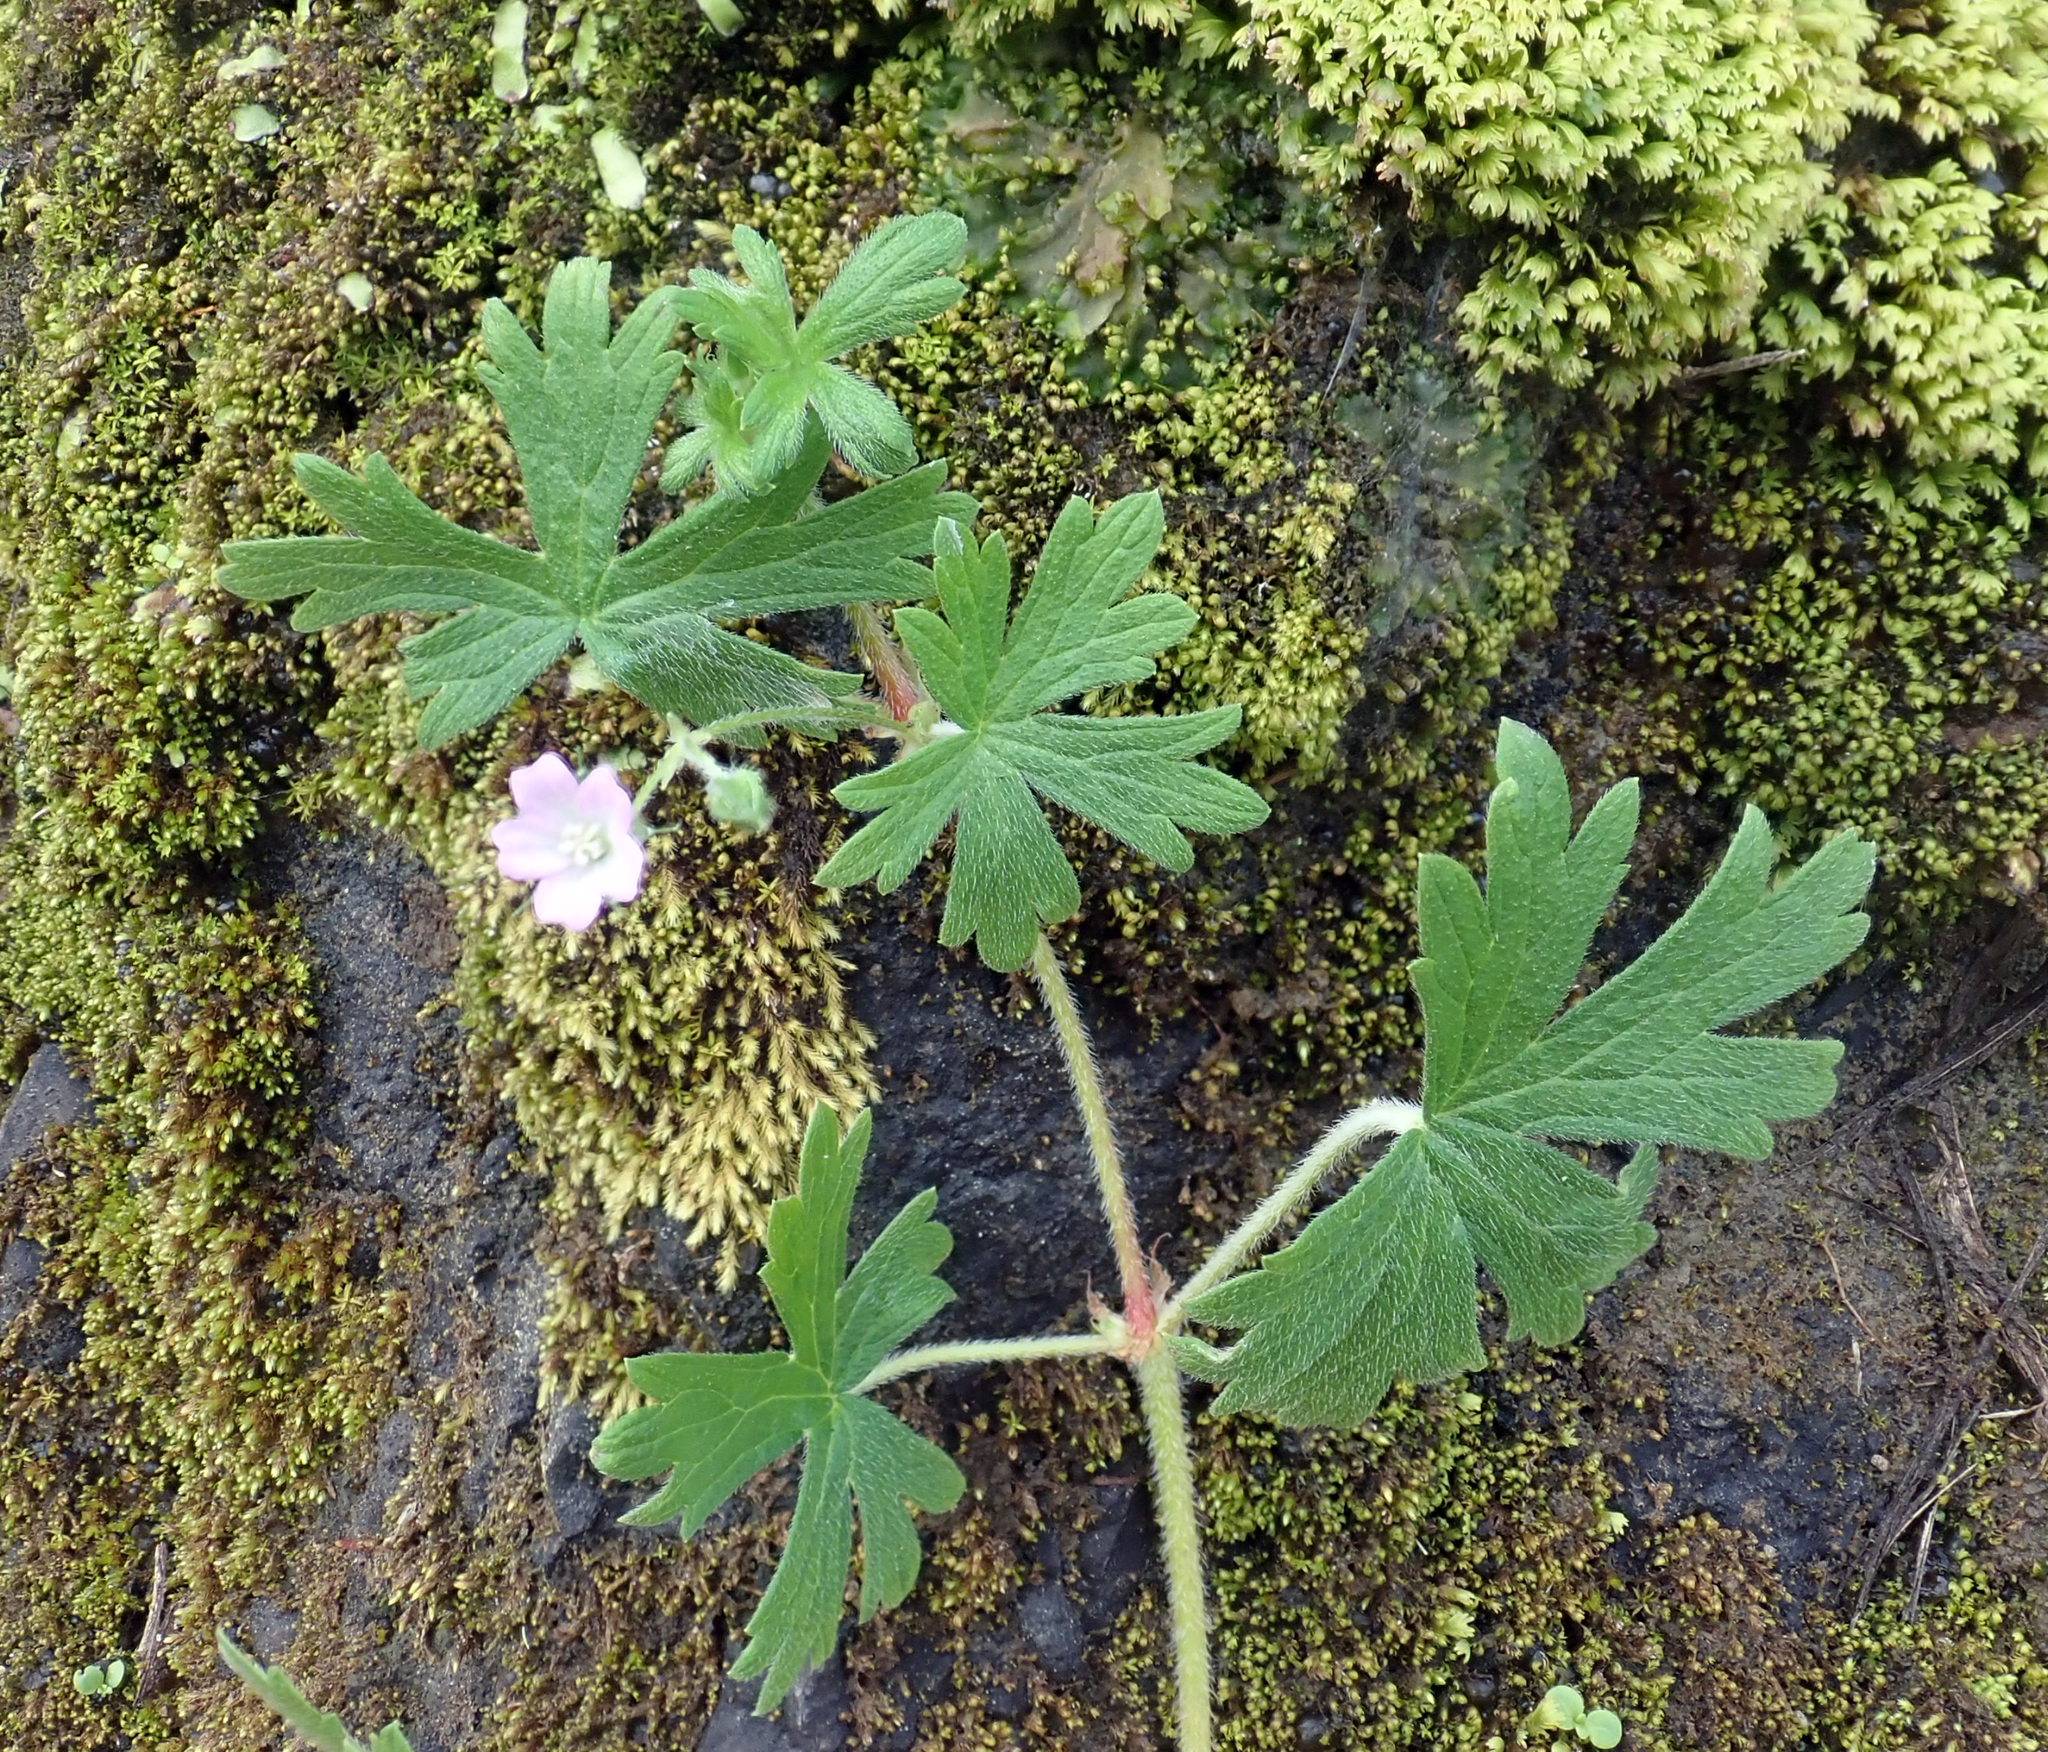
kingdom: Plantae
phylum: Tracheophyta
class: Magnoliopsida
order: Geraniales
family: Geraniaceae
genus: Geranium
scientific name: Geranium gardneri
